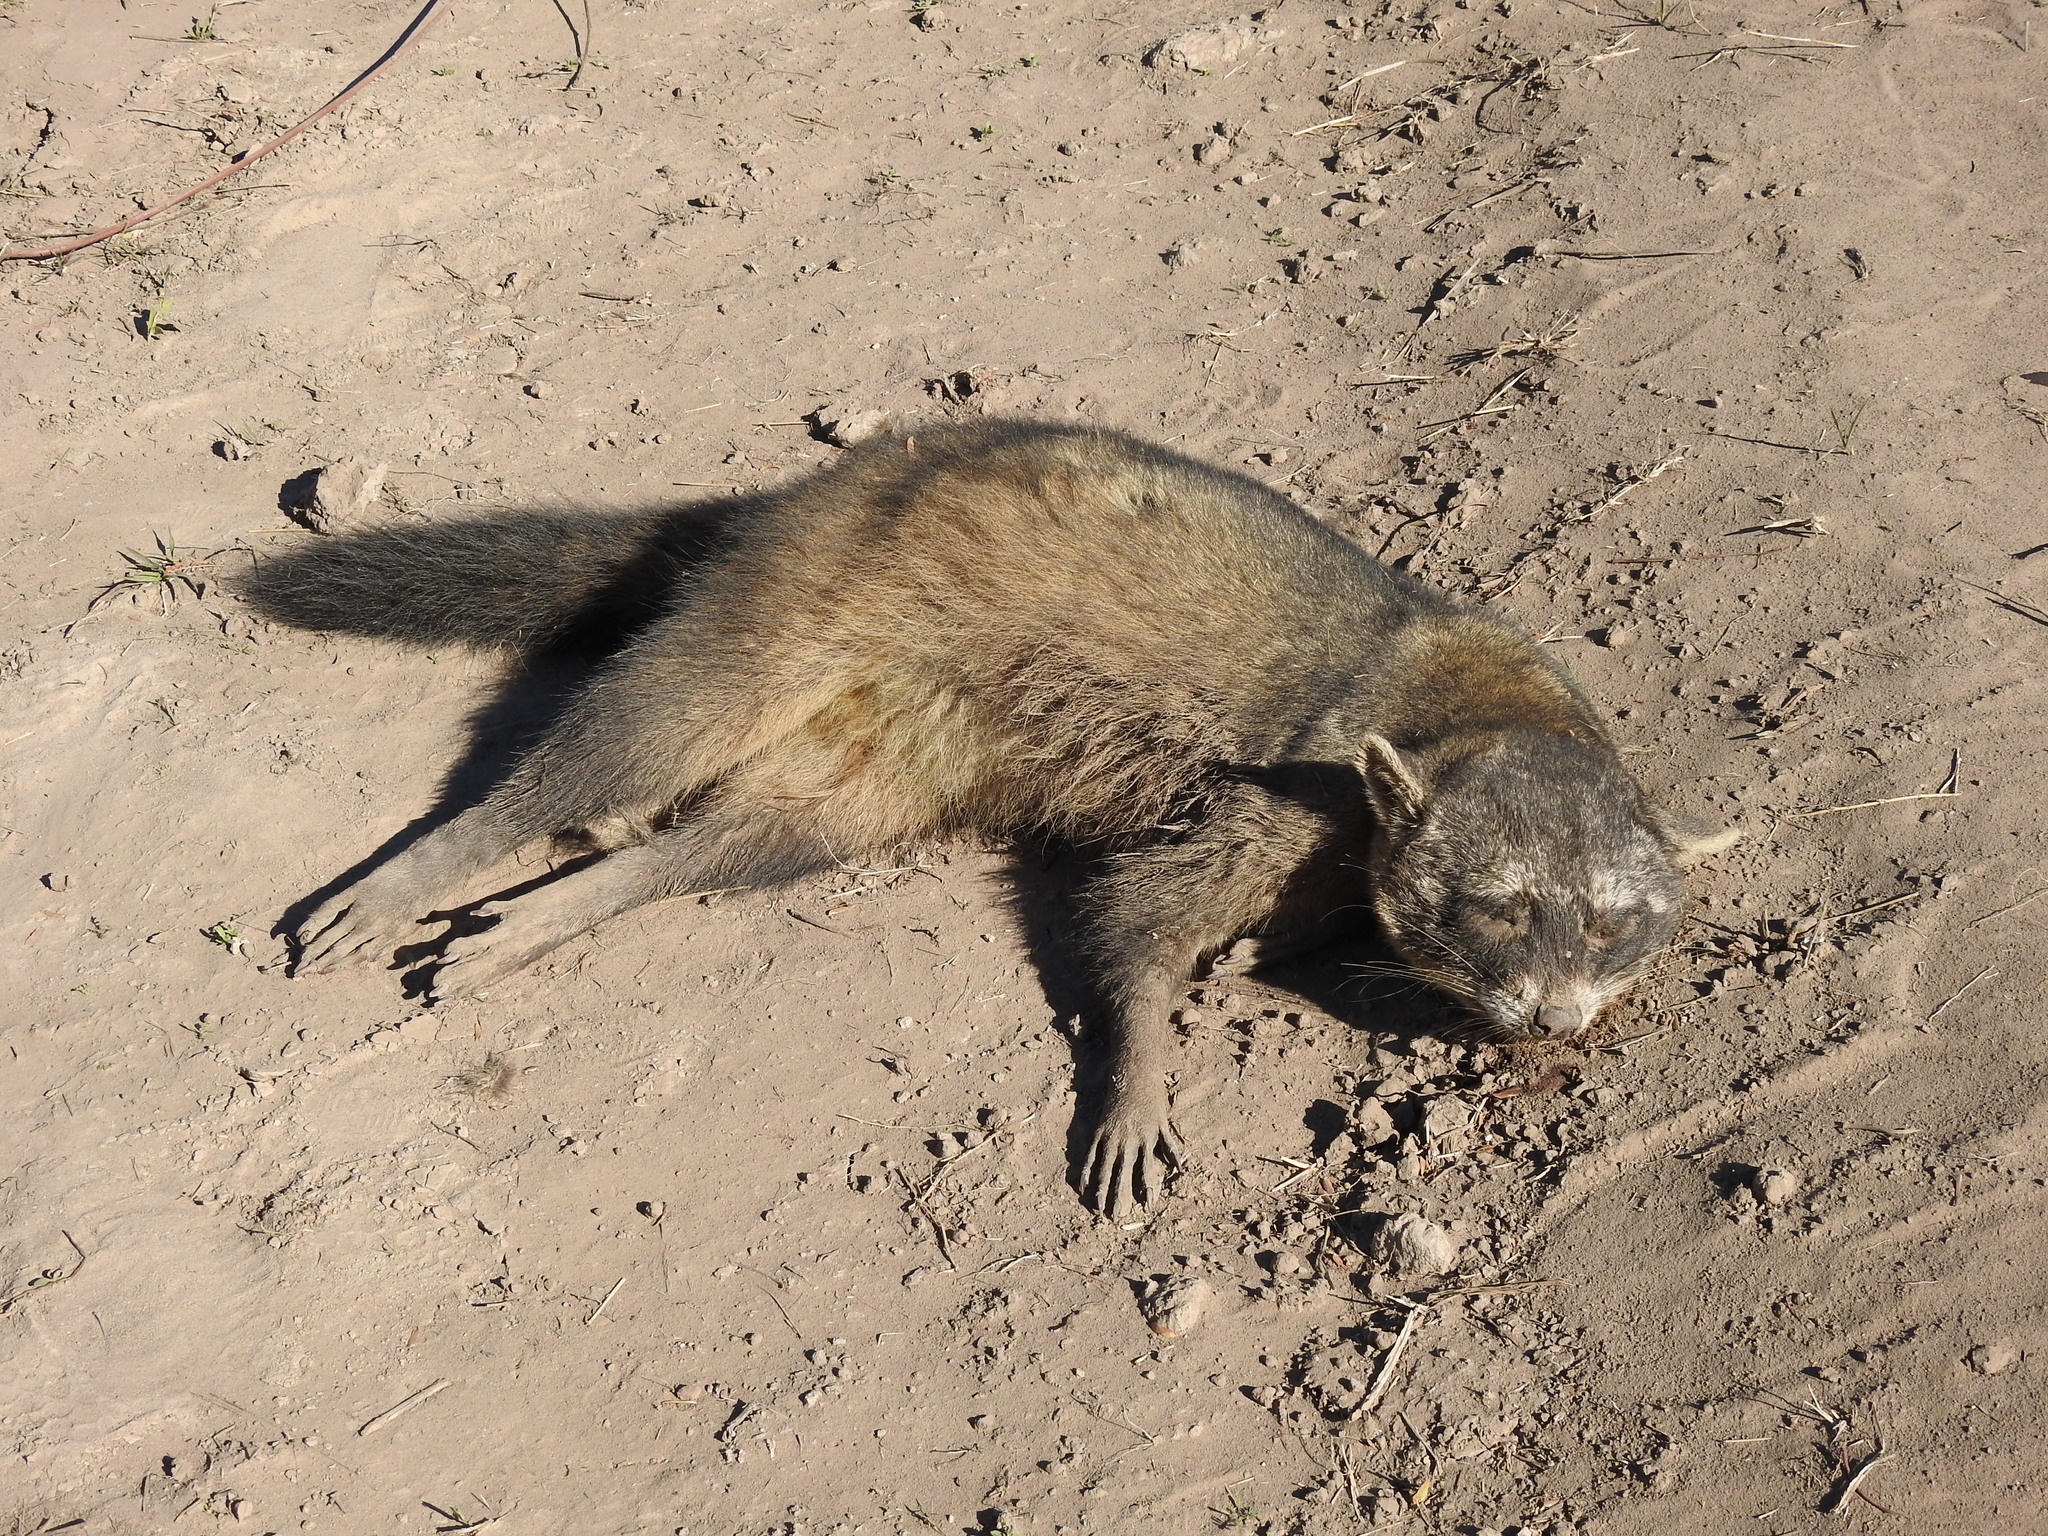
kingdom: Animalia
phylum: Chordata
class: Mammalia
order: Carnivora
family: Procyonidae
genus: Procyon
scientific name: Procyon cancrivorus
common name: Crab-eating raccoon
